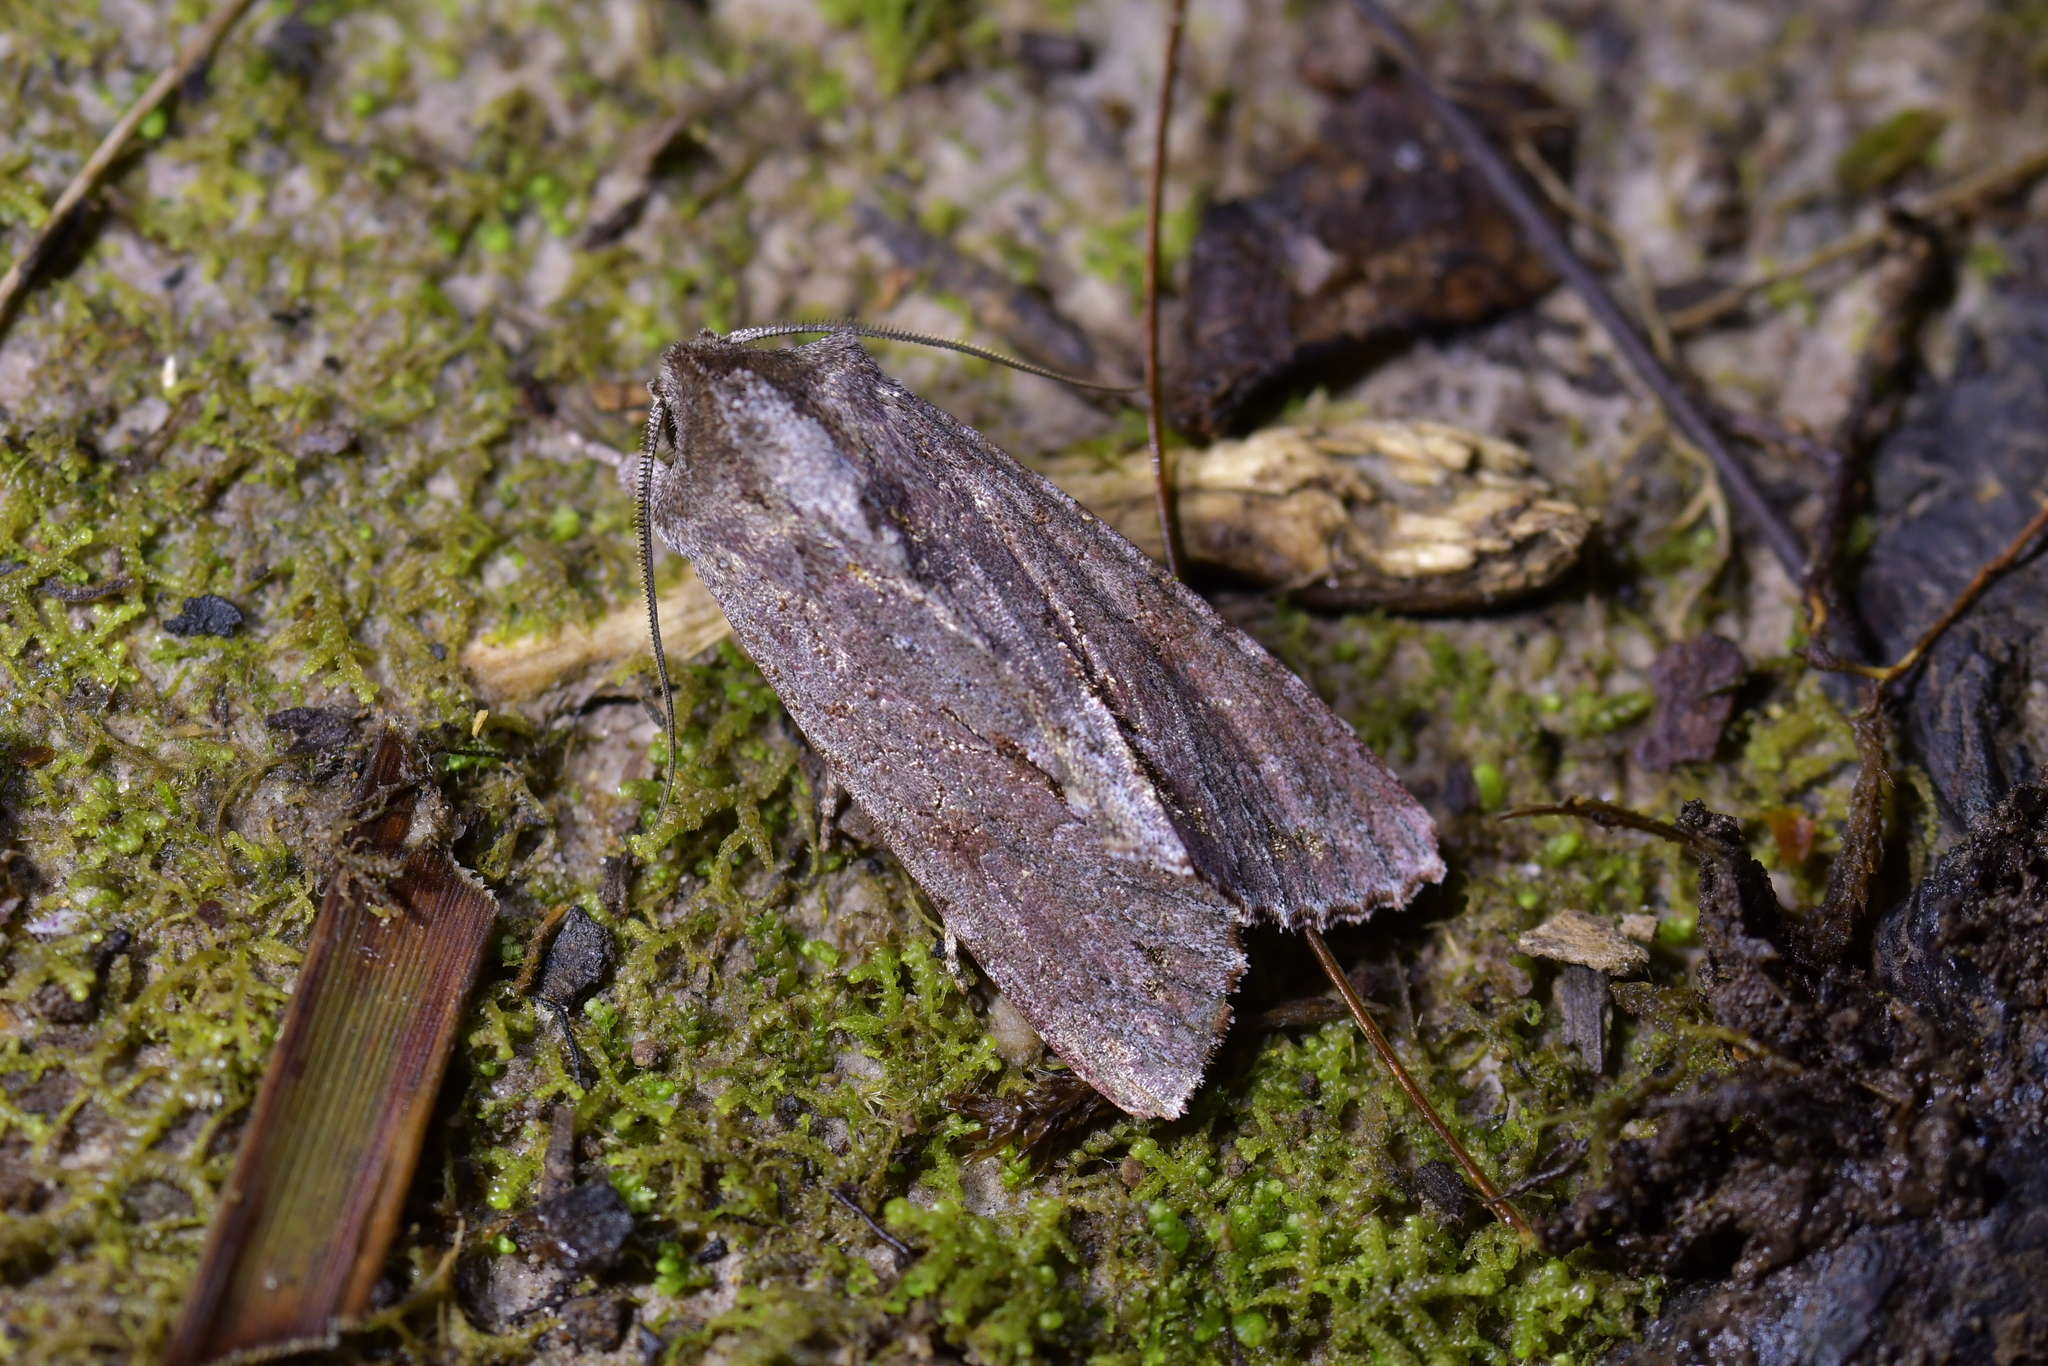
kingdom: Animalia
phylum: Arthropoda
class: Insecta
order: Lepidoptera
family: Noctuidae
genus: Ichneutica
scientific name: Ichneutica
